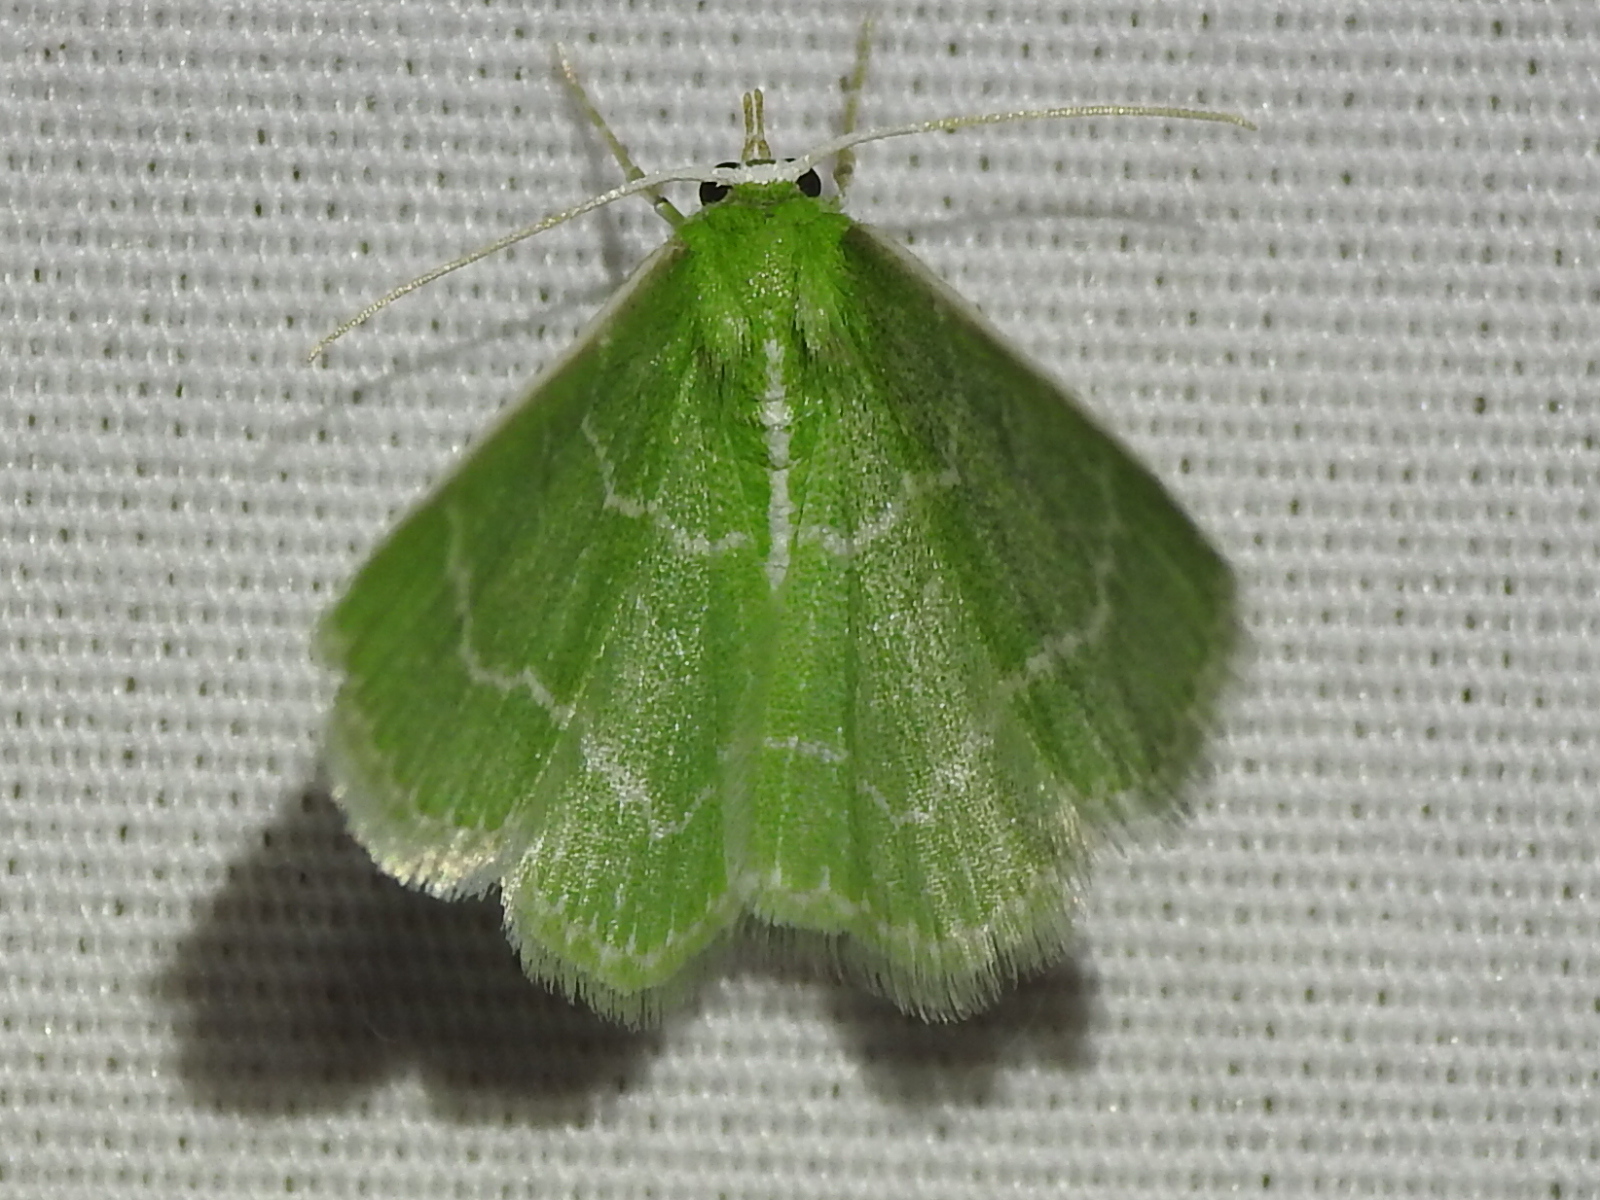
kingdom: Animalia
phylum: Arthropoda
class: Insecta
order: Lepidoptera
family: Geometridae
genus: Synchlora
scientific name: Synchlora aerata
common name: Wavy-lined emerald
